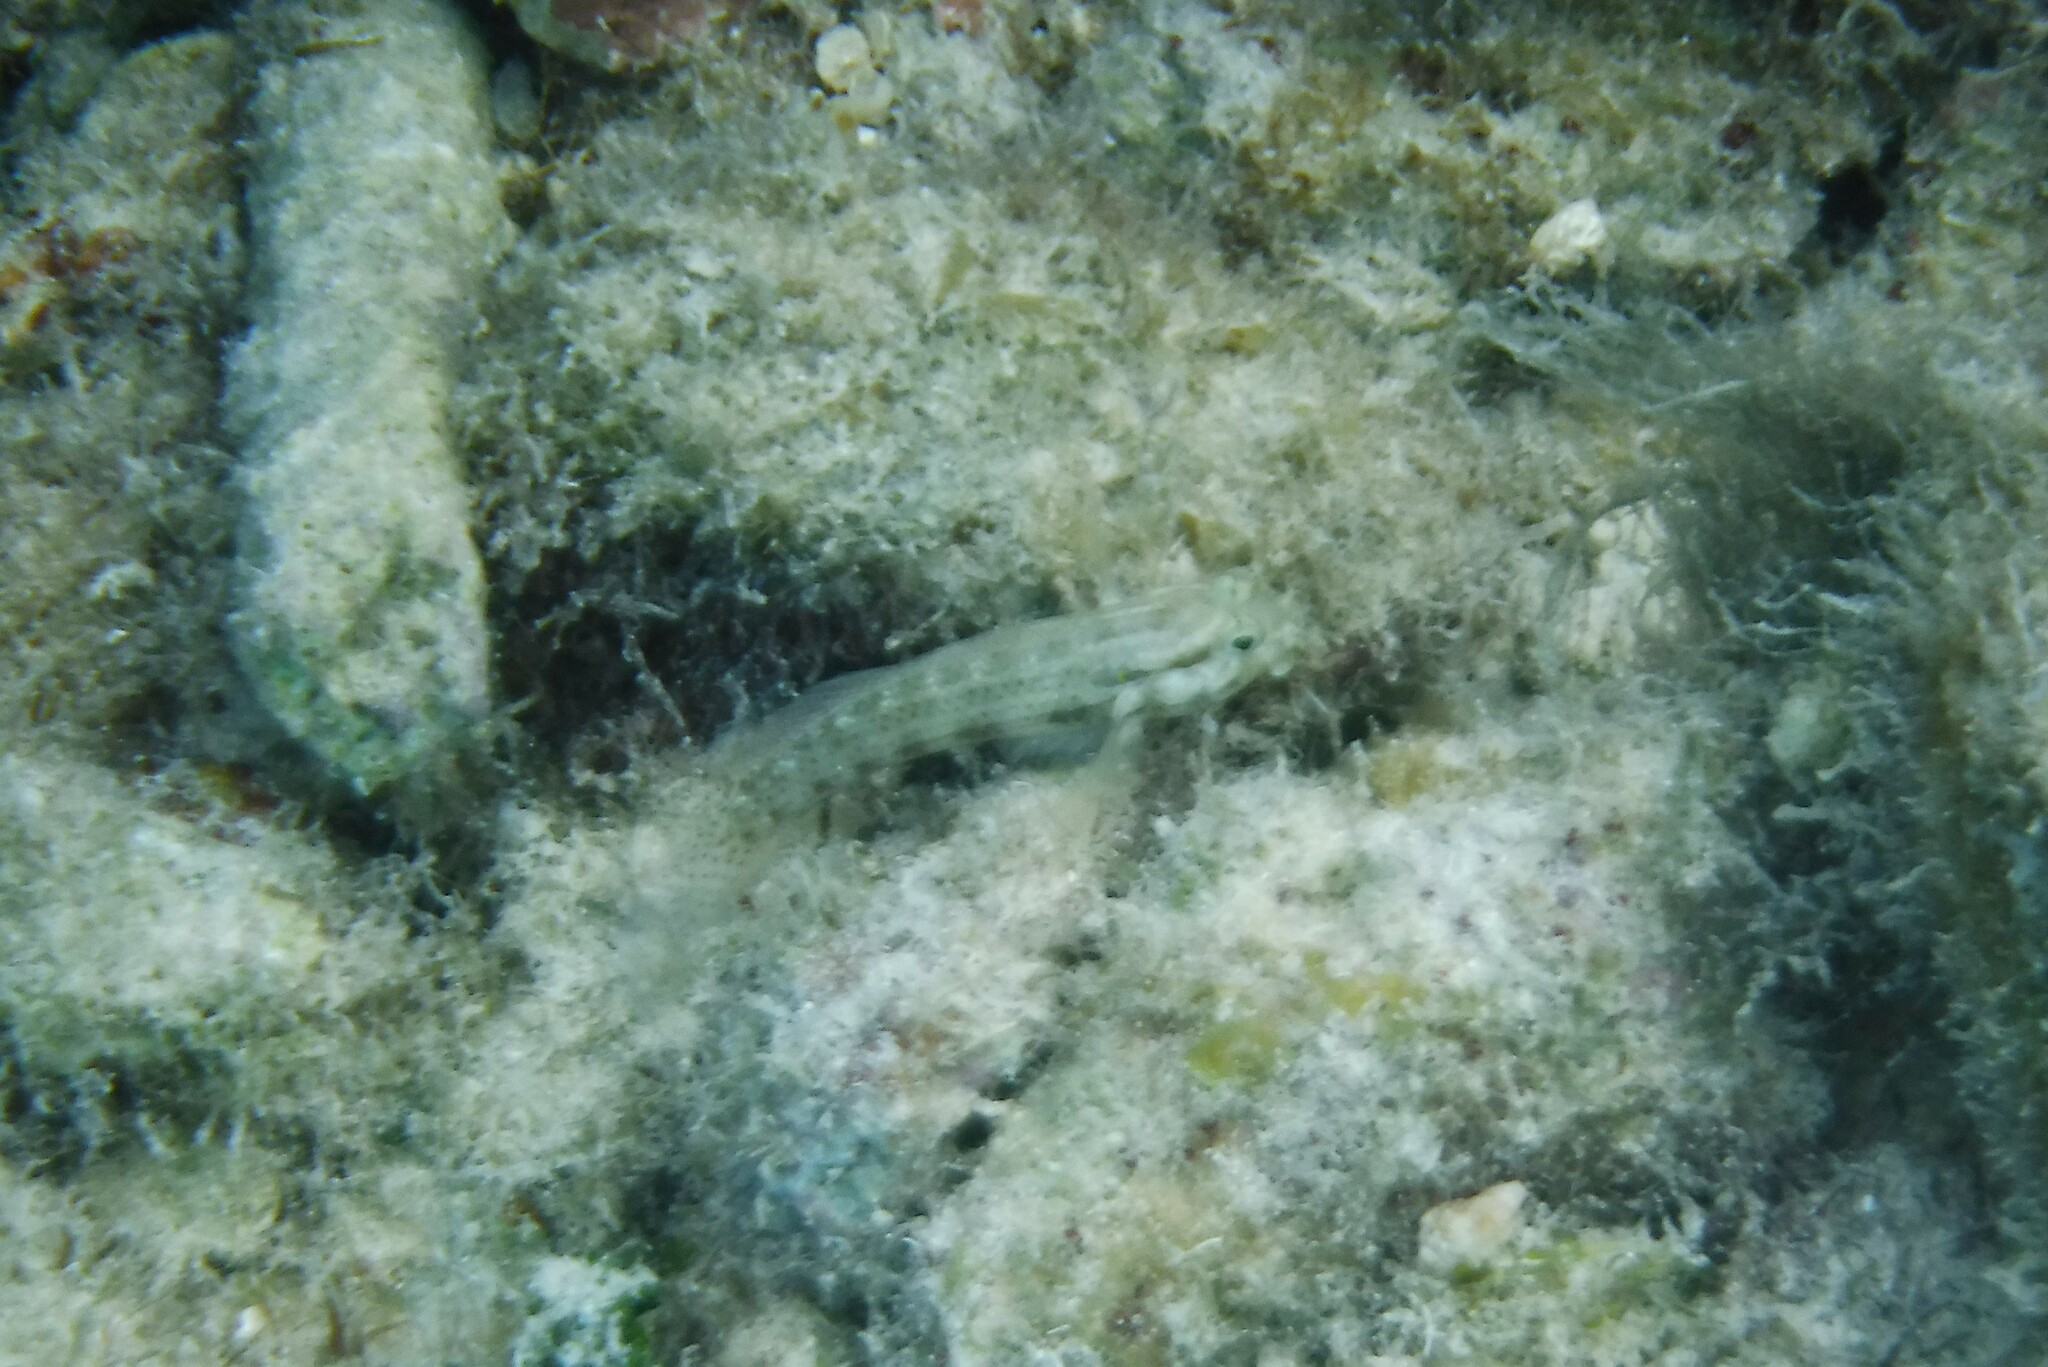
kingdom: Animalia
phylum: Chordata
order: Perciformes
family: Gobiidae
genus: Gnatholepis
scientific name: Gnatholepis thompsoni
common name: Goldspot goby
